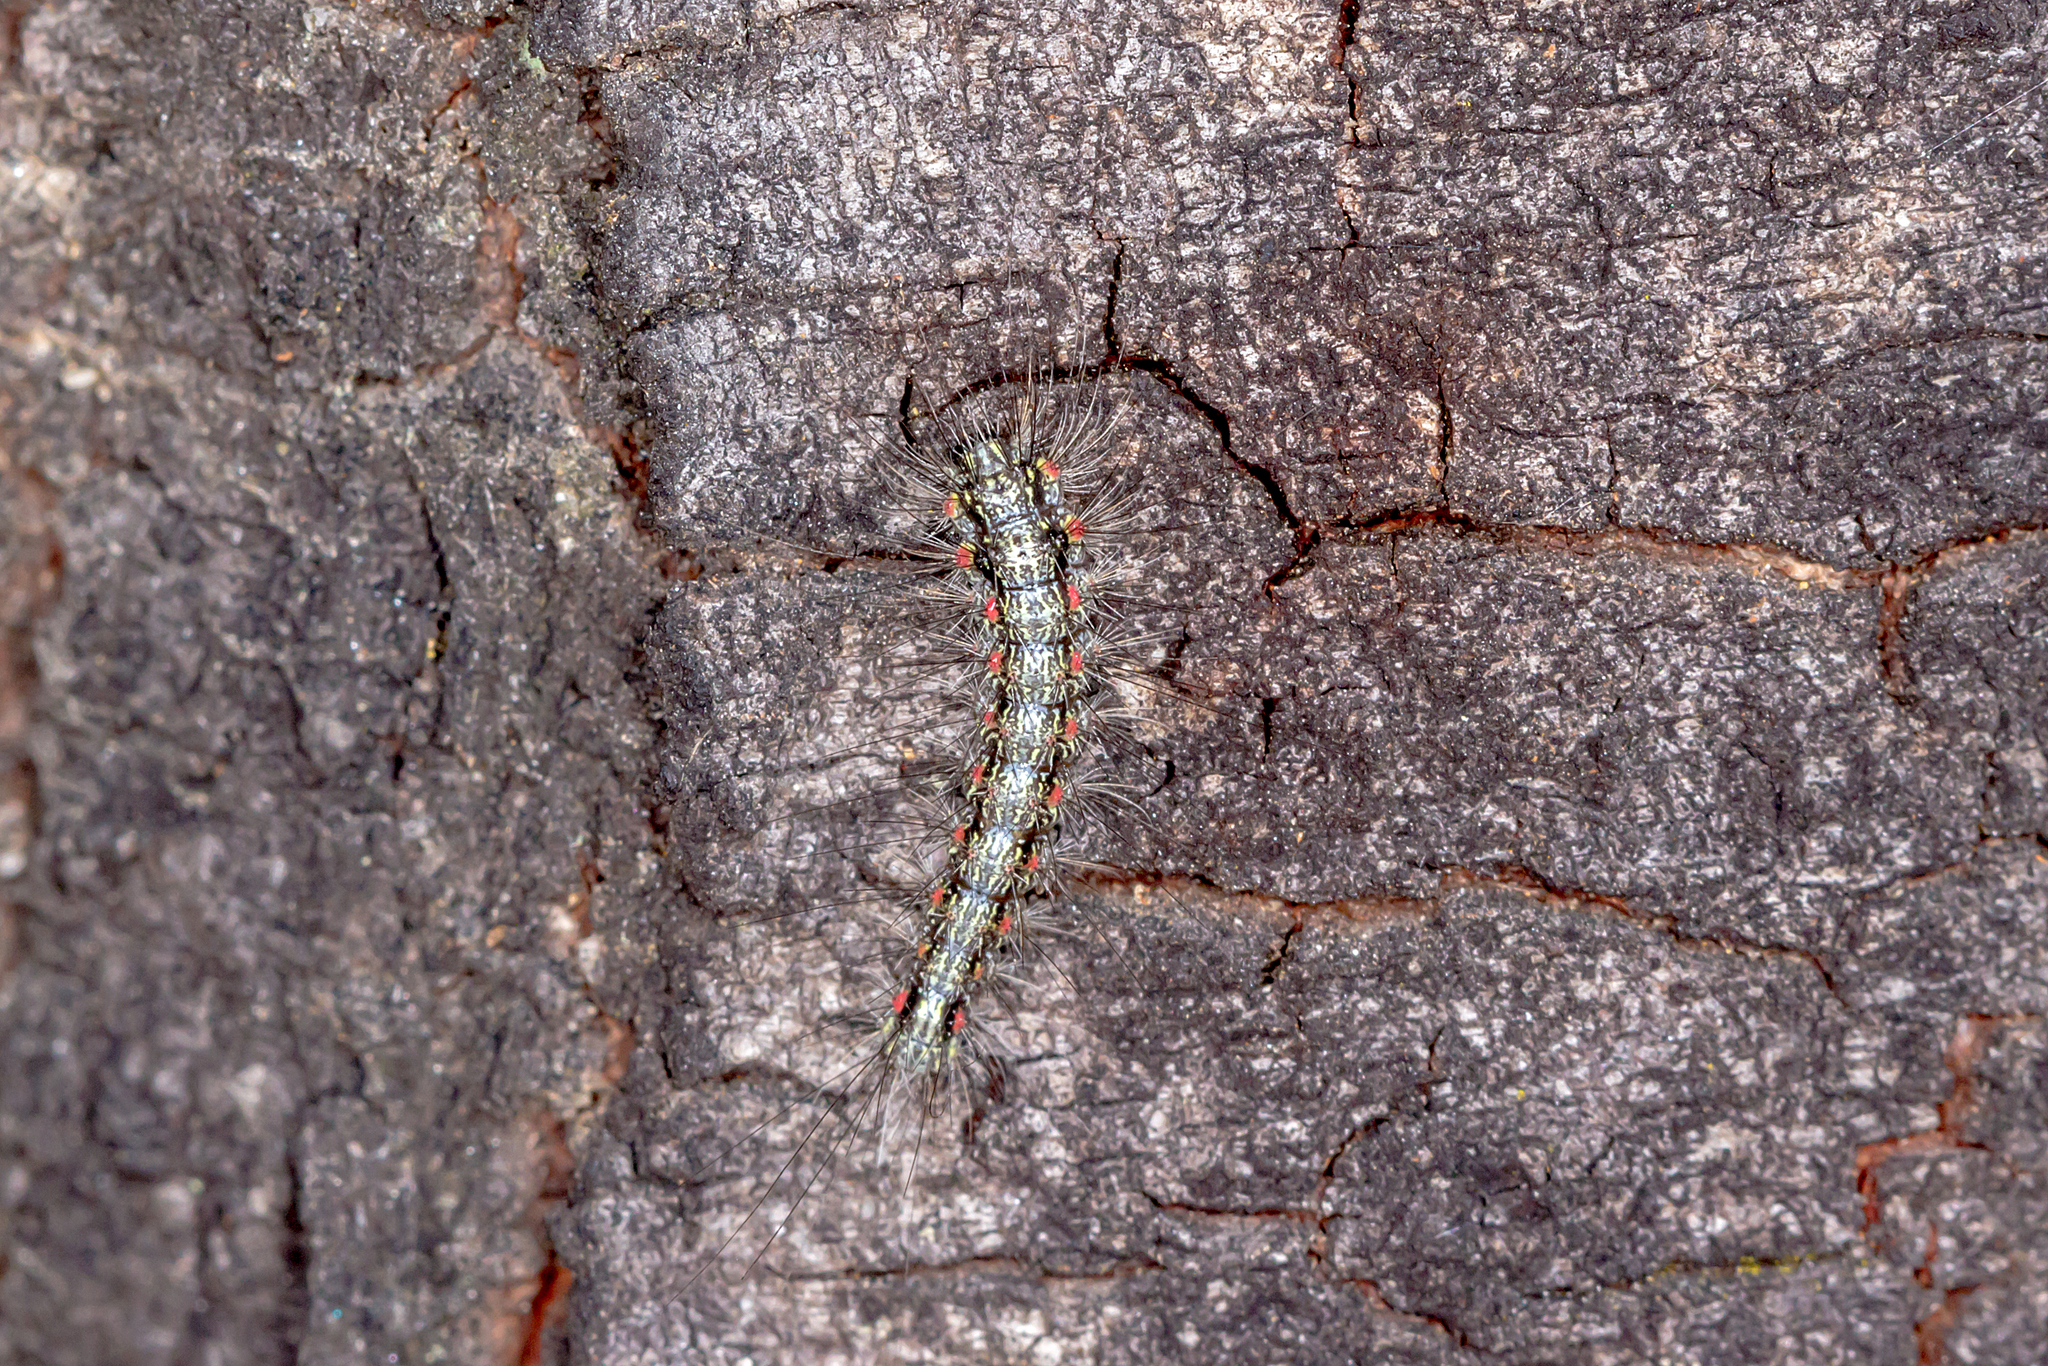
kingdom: Animalia
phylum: Arthropoda
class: Insecta
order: Lepidoptera
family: Erebidae
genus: Anestia
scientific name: Anestia
